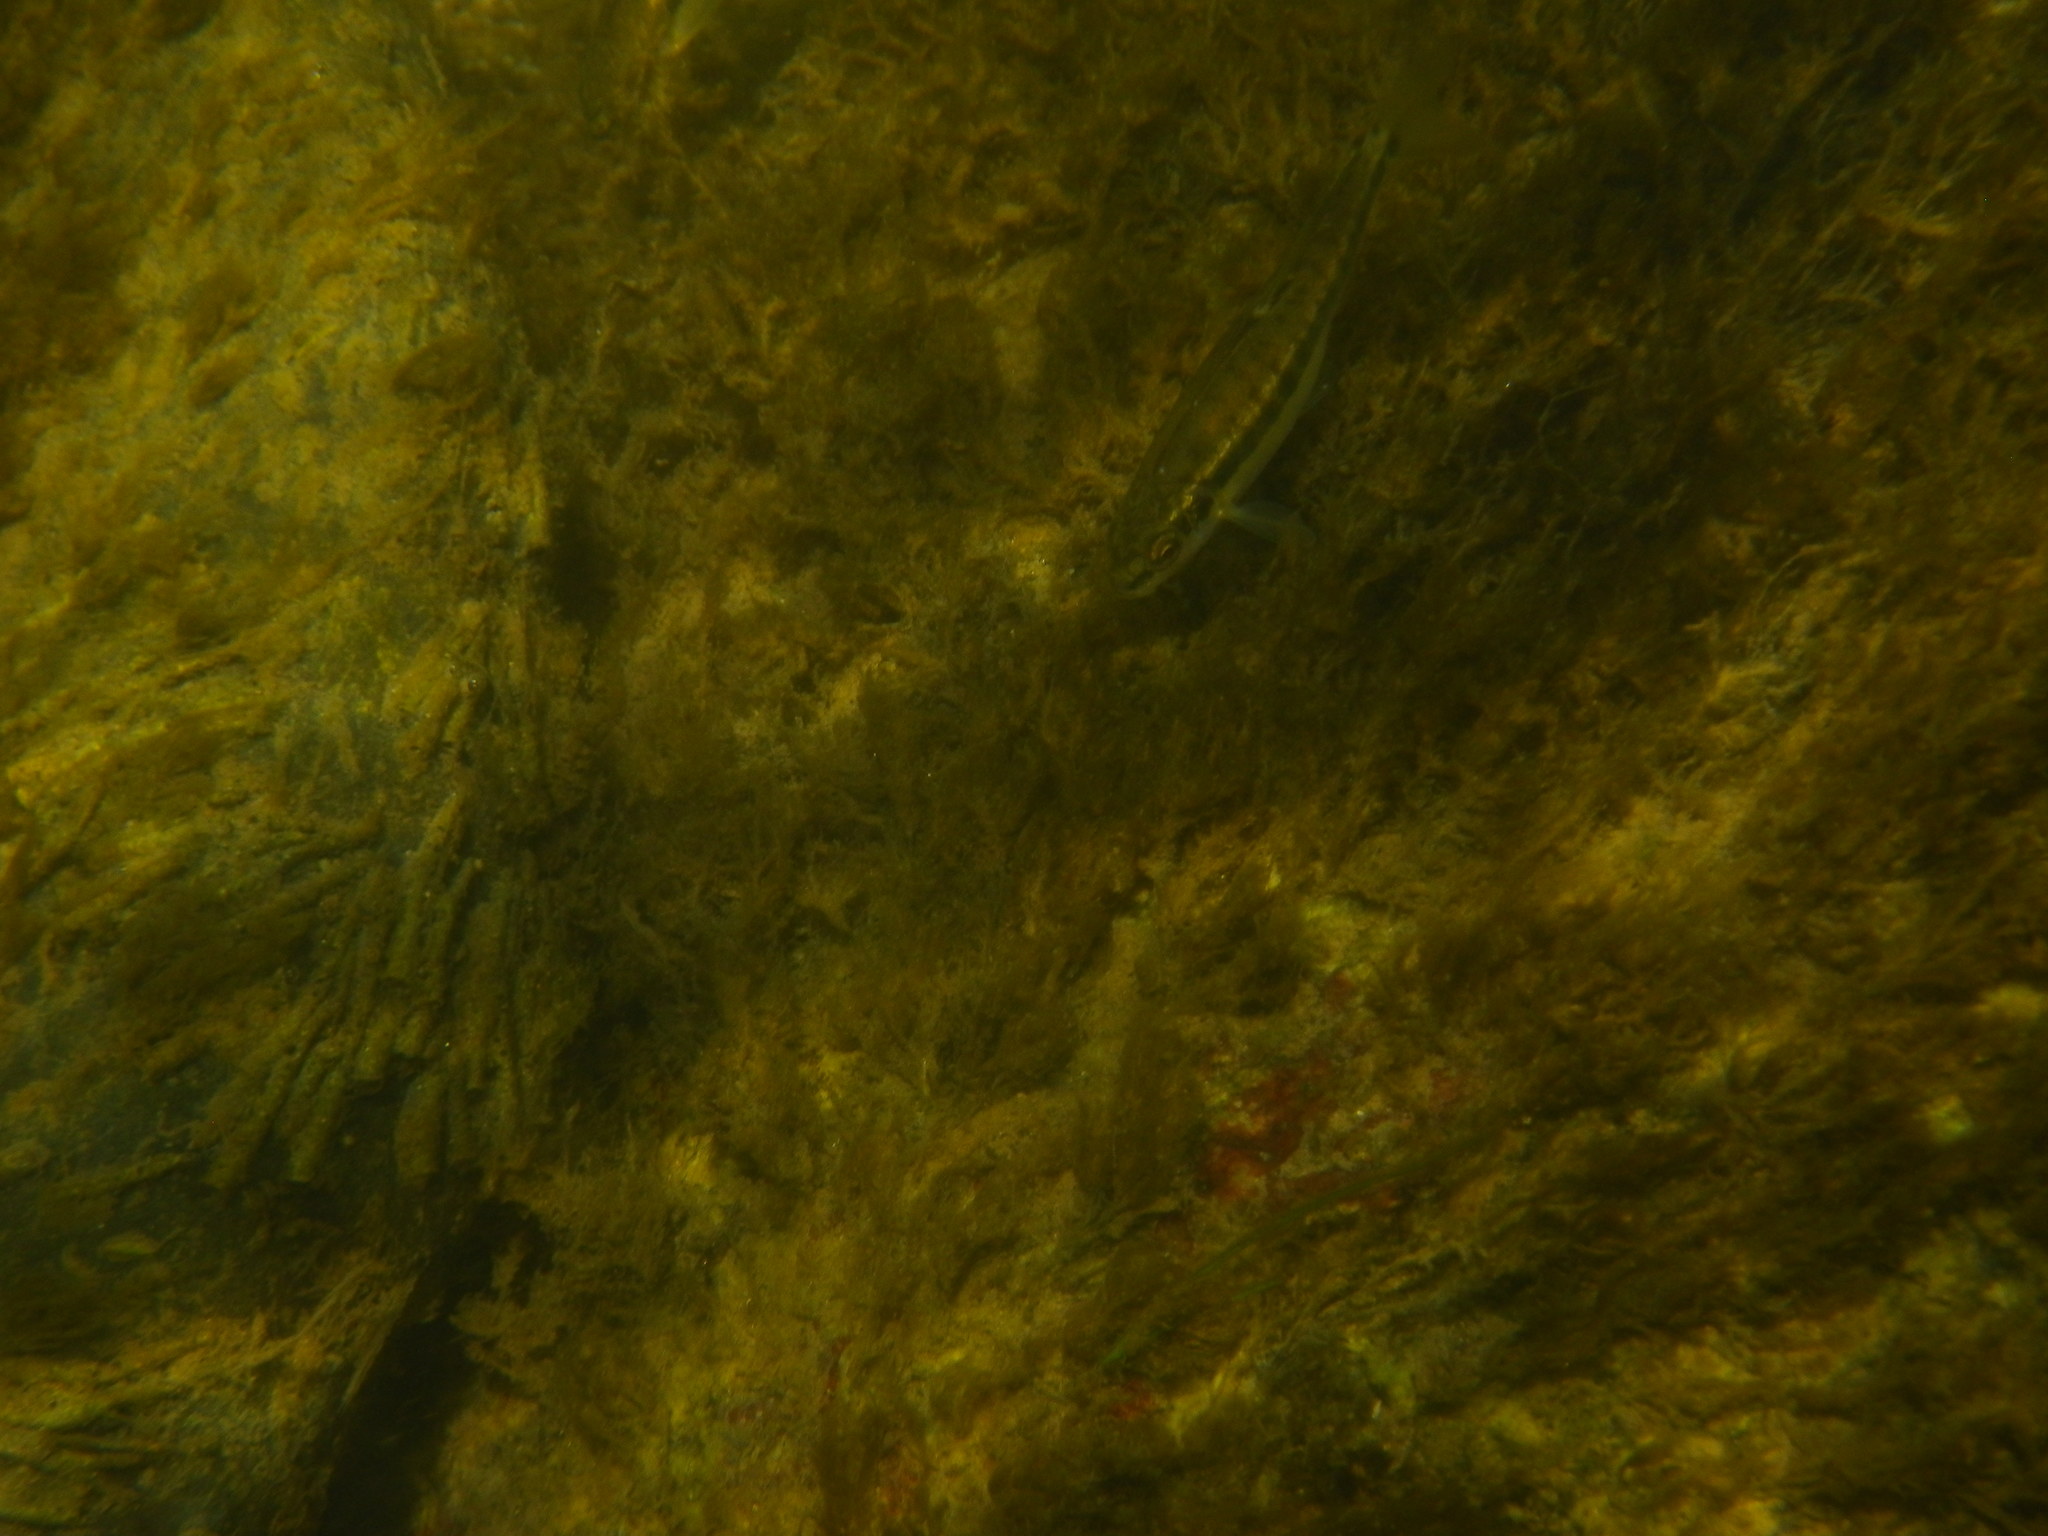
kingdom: Animalia
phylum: Chordata
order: Cypriniformes
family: Cyprinidae
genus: Phoxinus
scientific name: Phoxinus septimaniae
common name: Languedoc minnow
